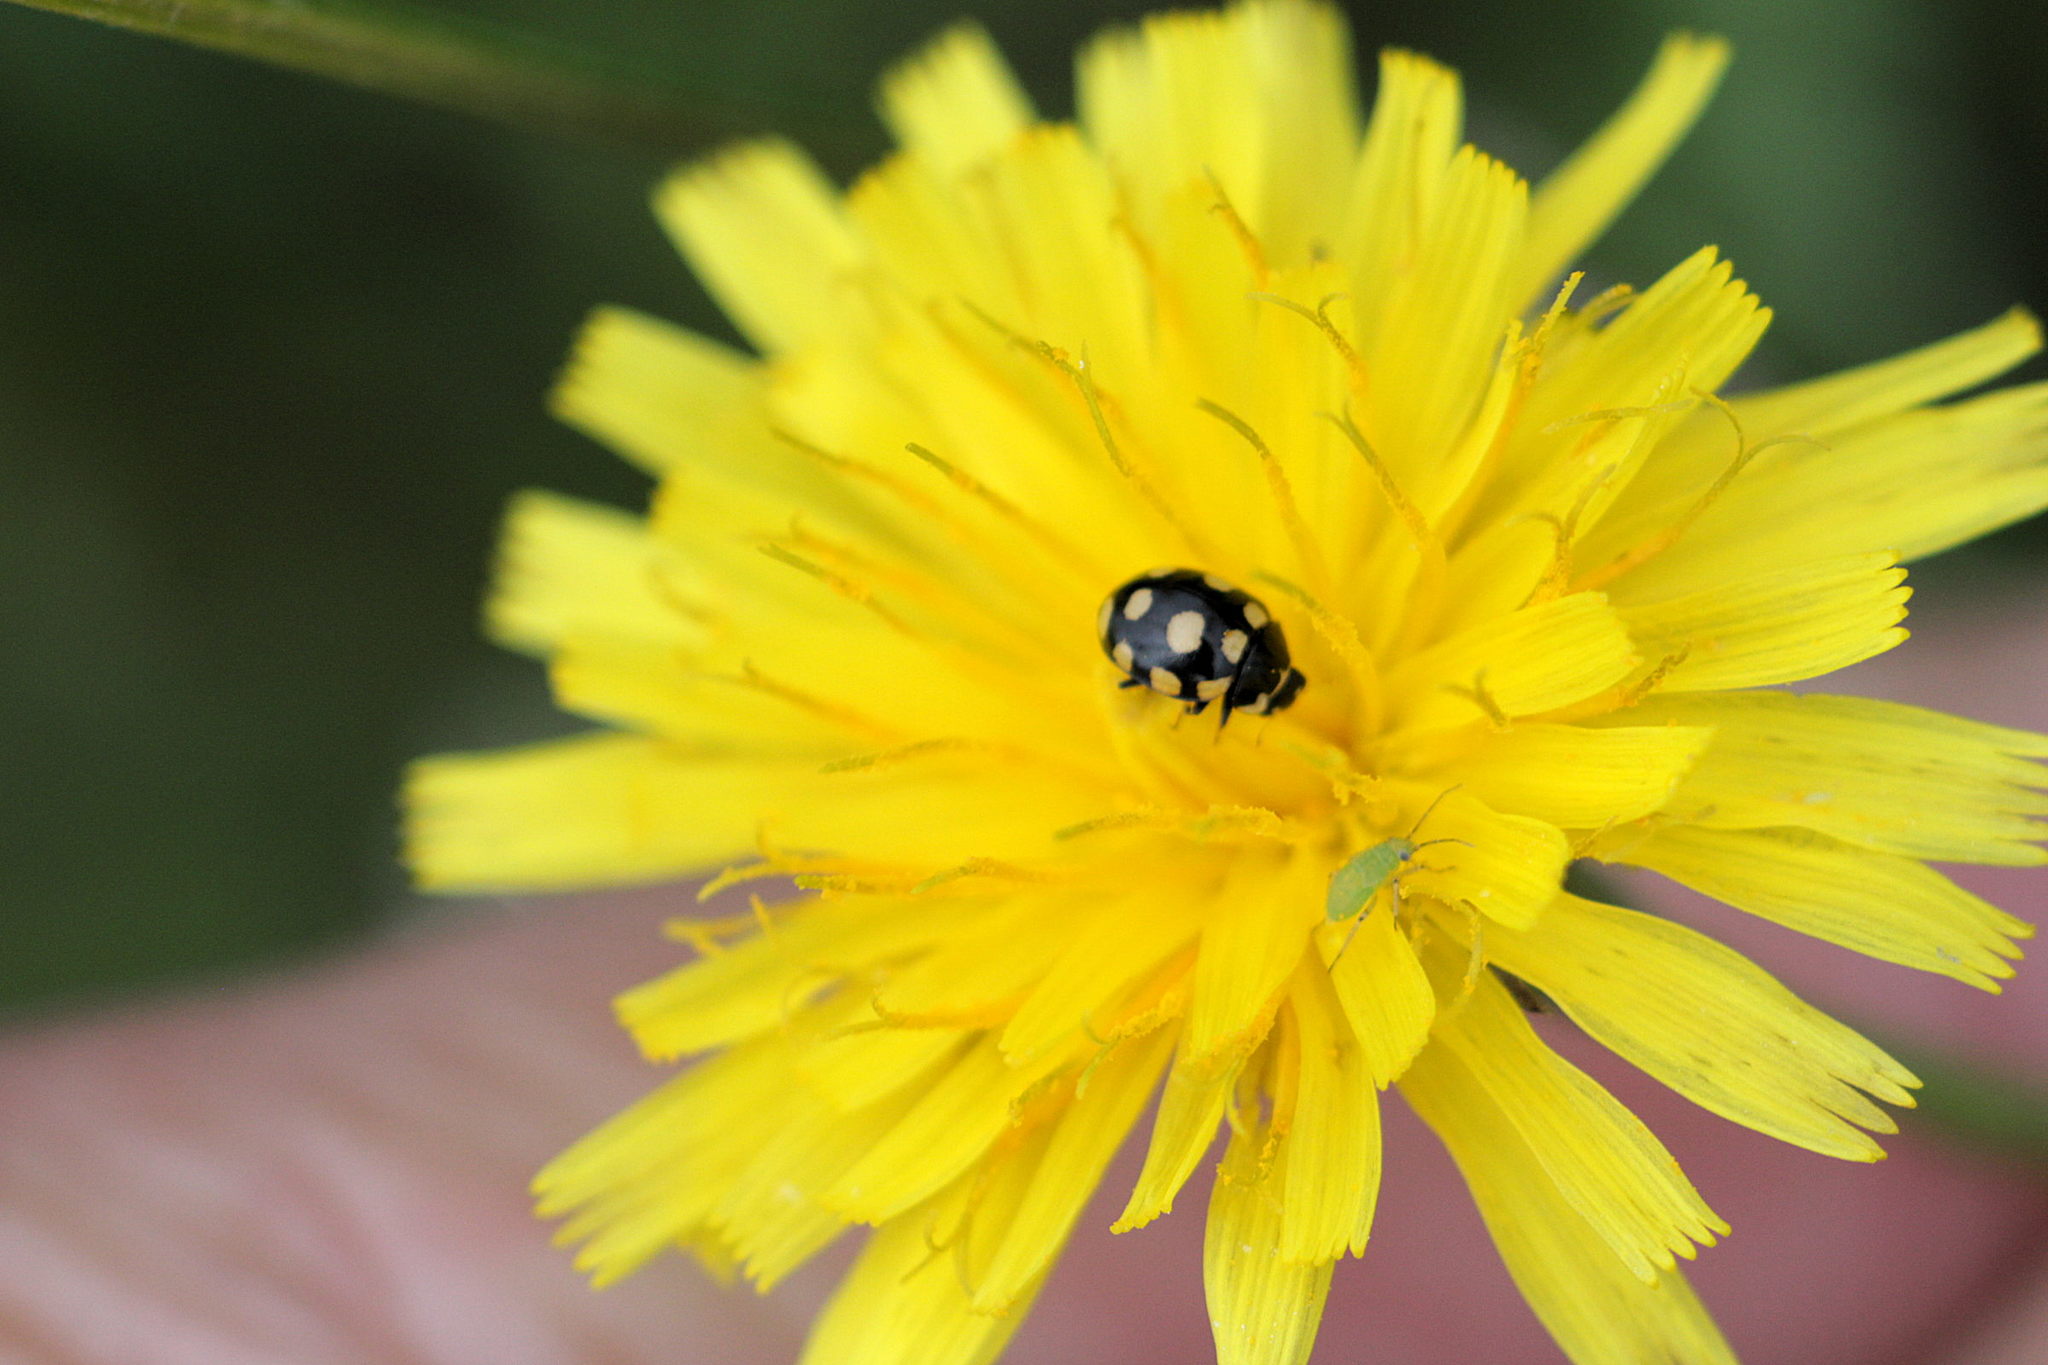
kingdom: Animalia
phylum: Arthropoda
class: Insecta
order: Coleoptera
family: Coccinellidae
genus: Coccinula
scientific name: Coccinula quatuordecimpustulata
